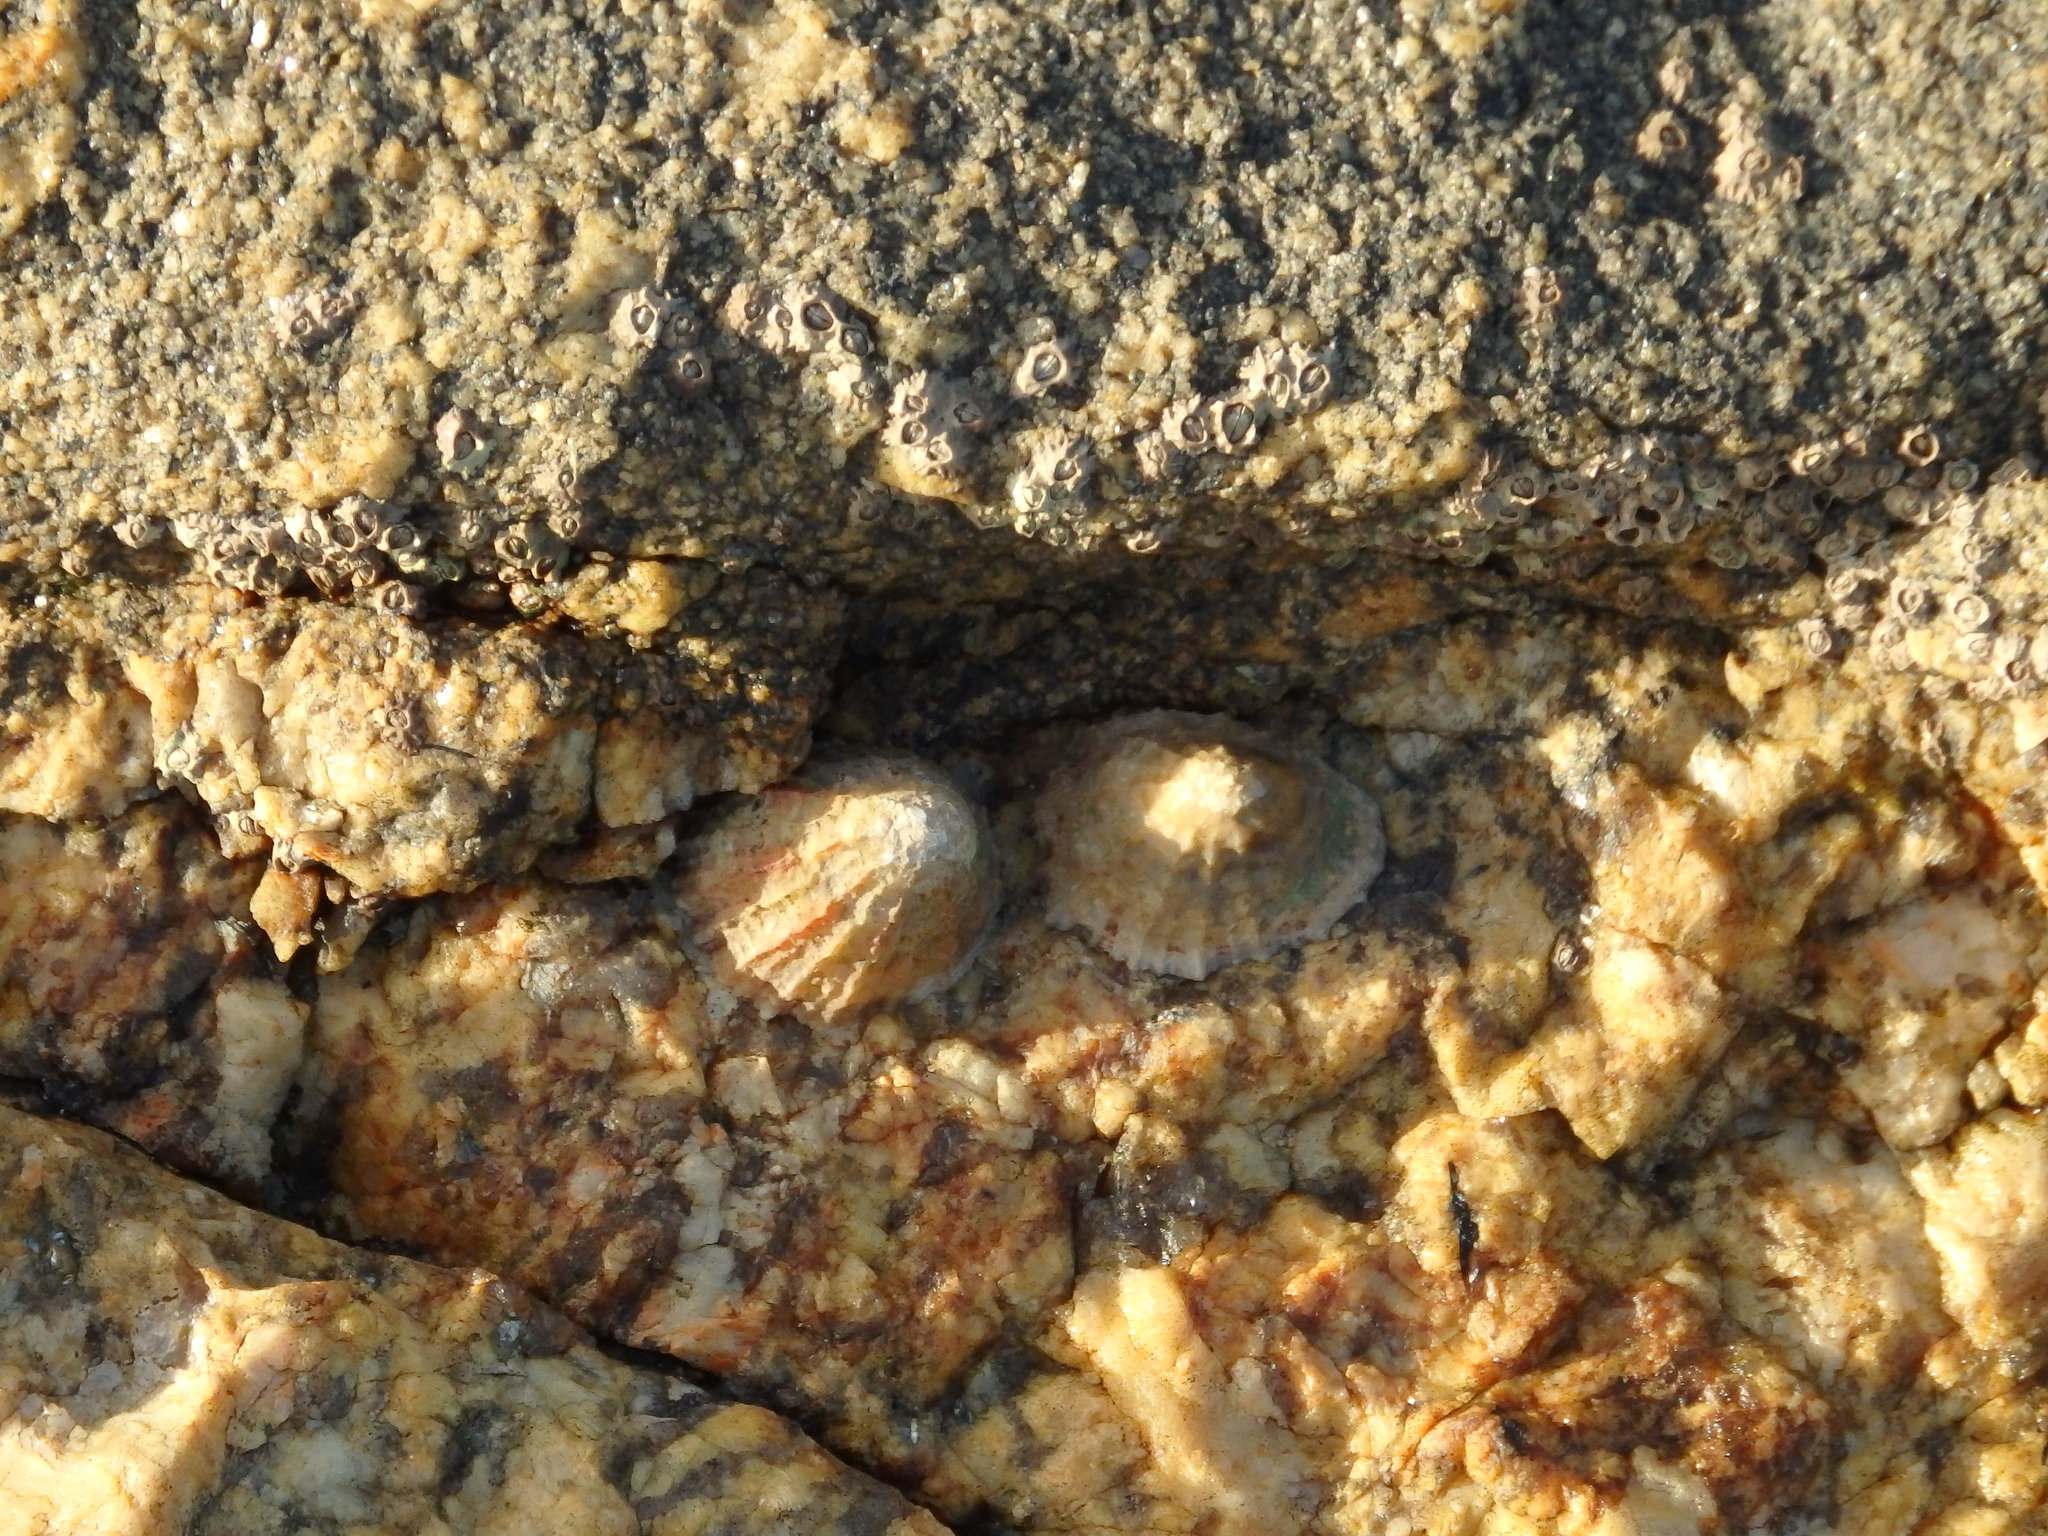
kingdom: Animalia
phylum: Mollusca
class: Gastropoda
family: Patellidae
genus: Patella
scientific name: Patella vulgata
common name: Common limpet
